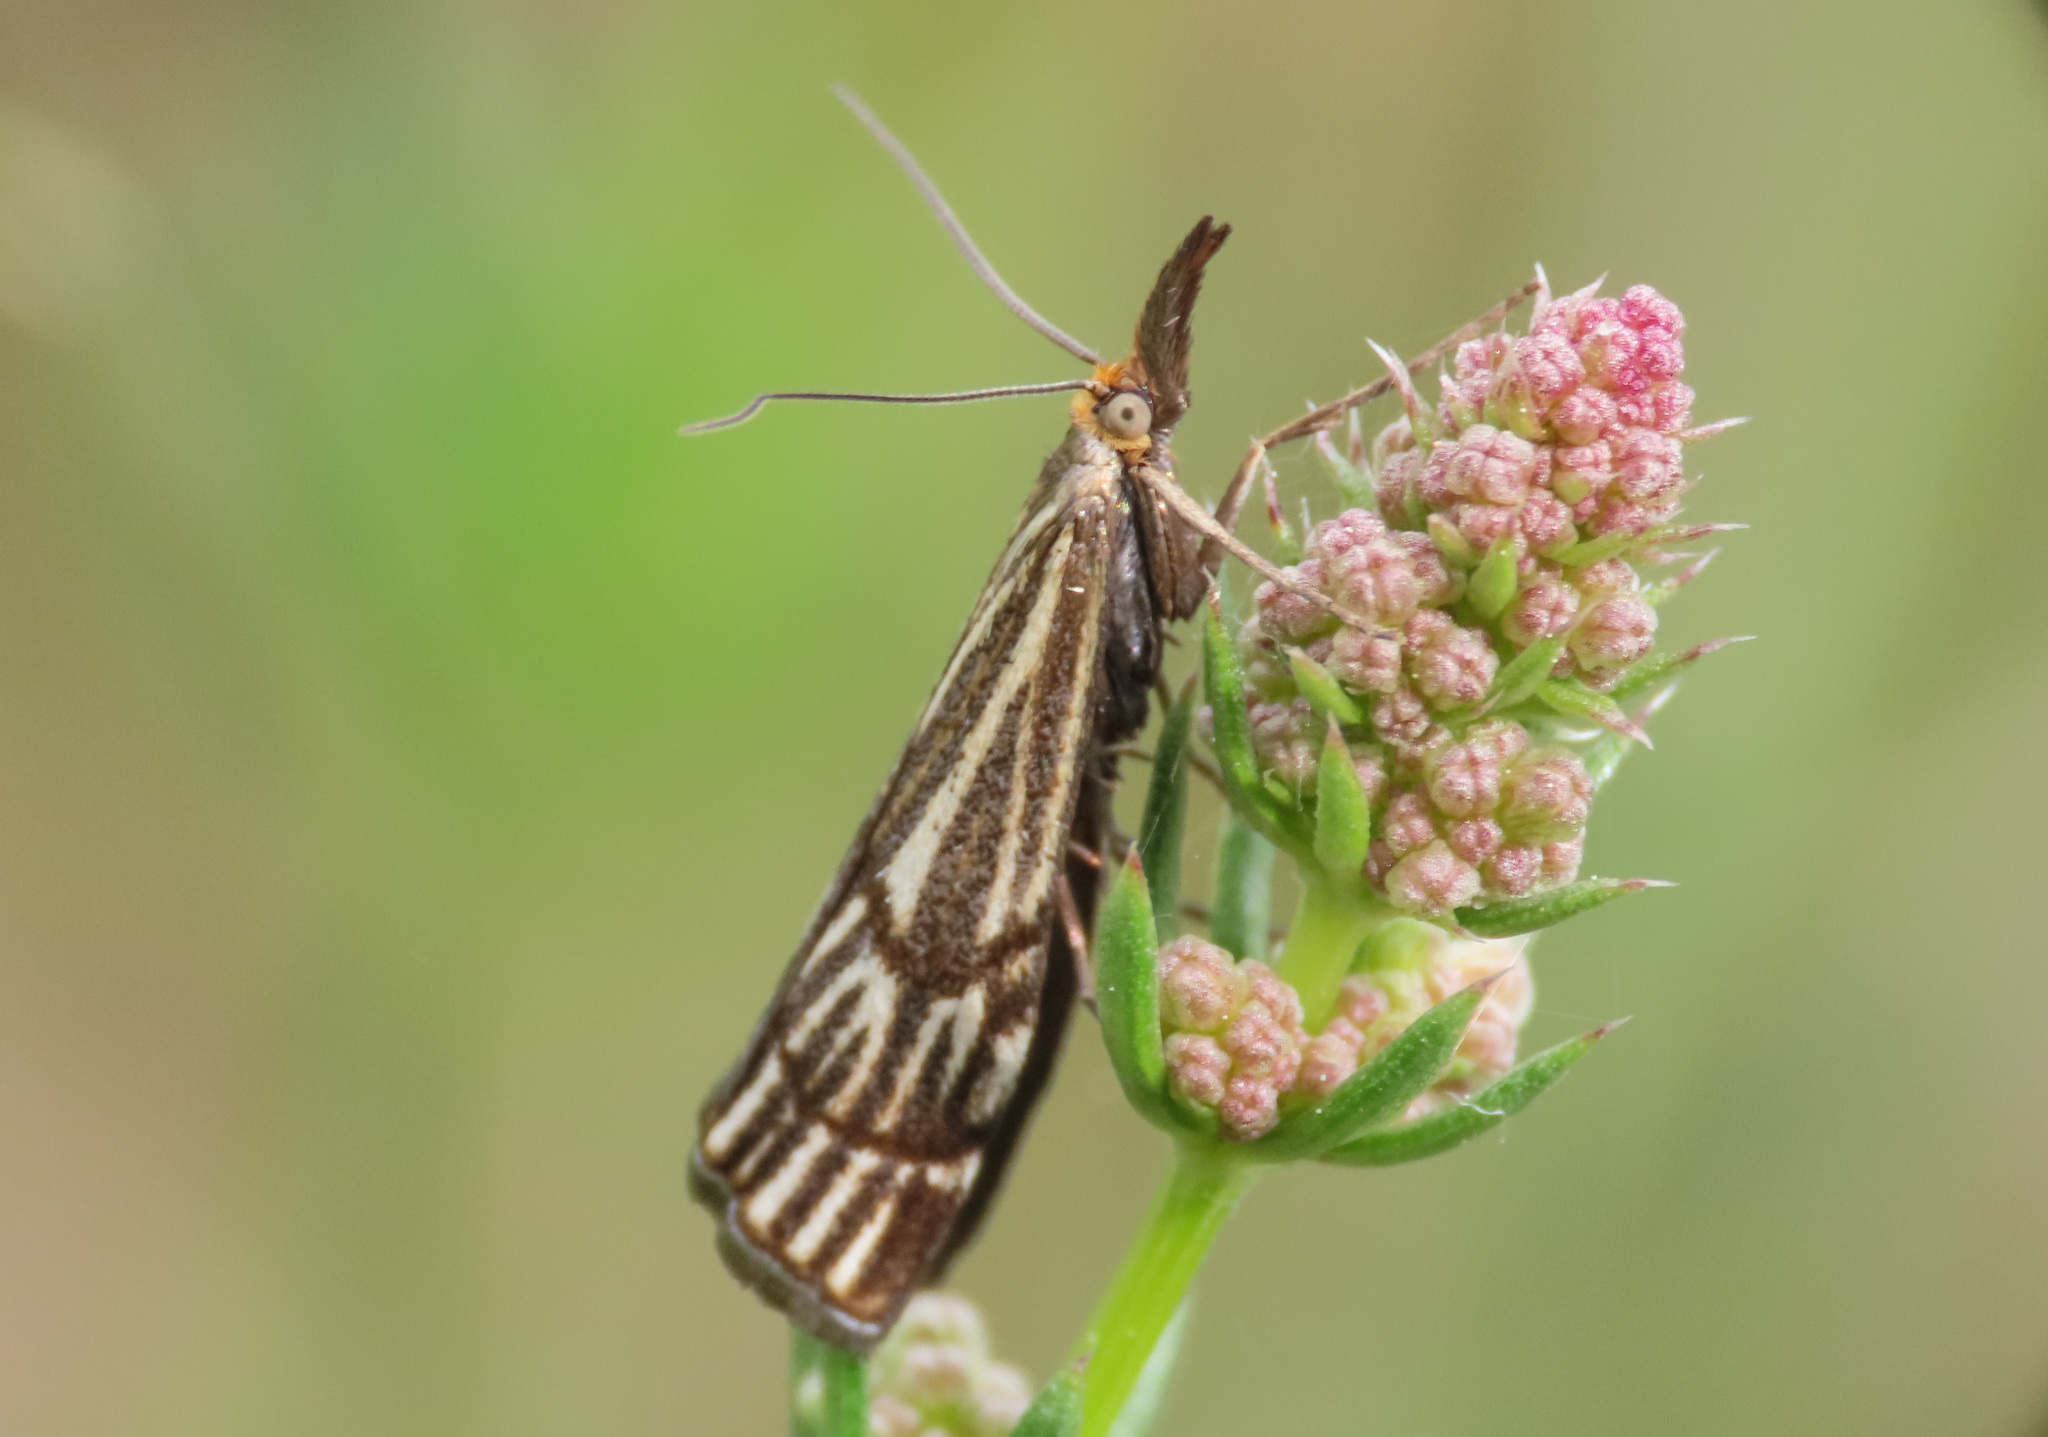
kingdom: Animalia
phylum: Arthropoda
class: Insecta
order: Lepidoptera
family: Crambidae
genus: Chrysocrambus
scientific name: Chrysocrambus Chrysocramboides craterellus
